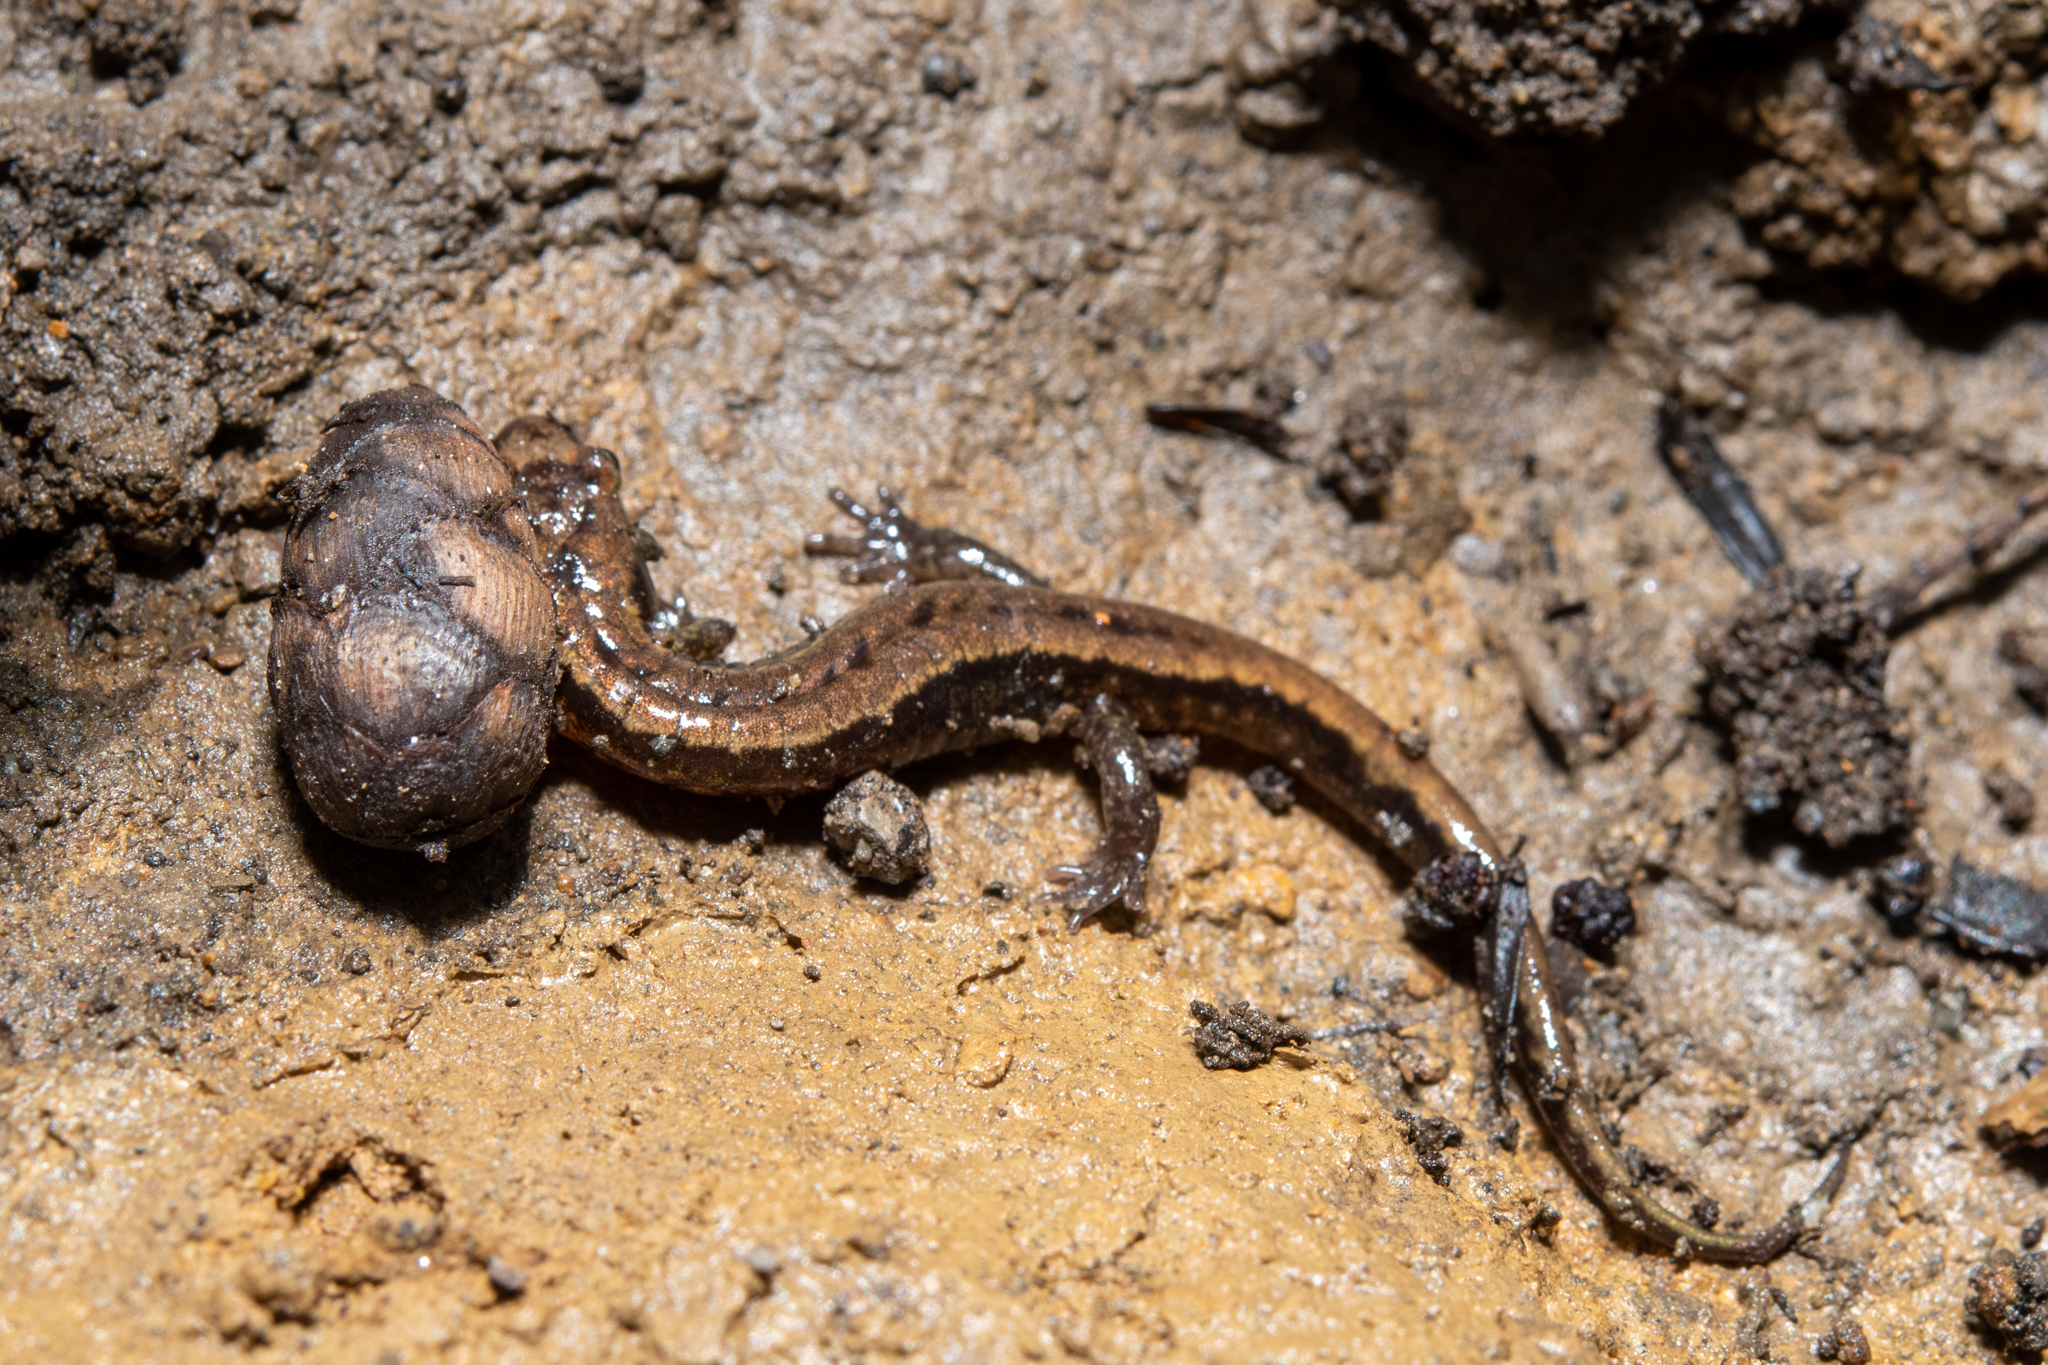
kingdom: Animalia
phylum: Chordata
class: Amphibia
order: Caudata
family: Plethodontidae
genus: Desmognathus
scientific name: Desmognathus ochrophaeus
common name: Allegheny mountain dusky salamander
